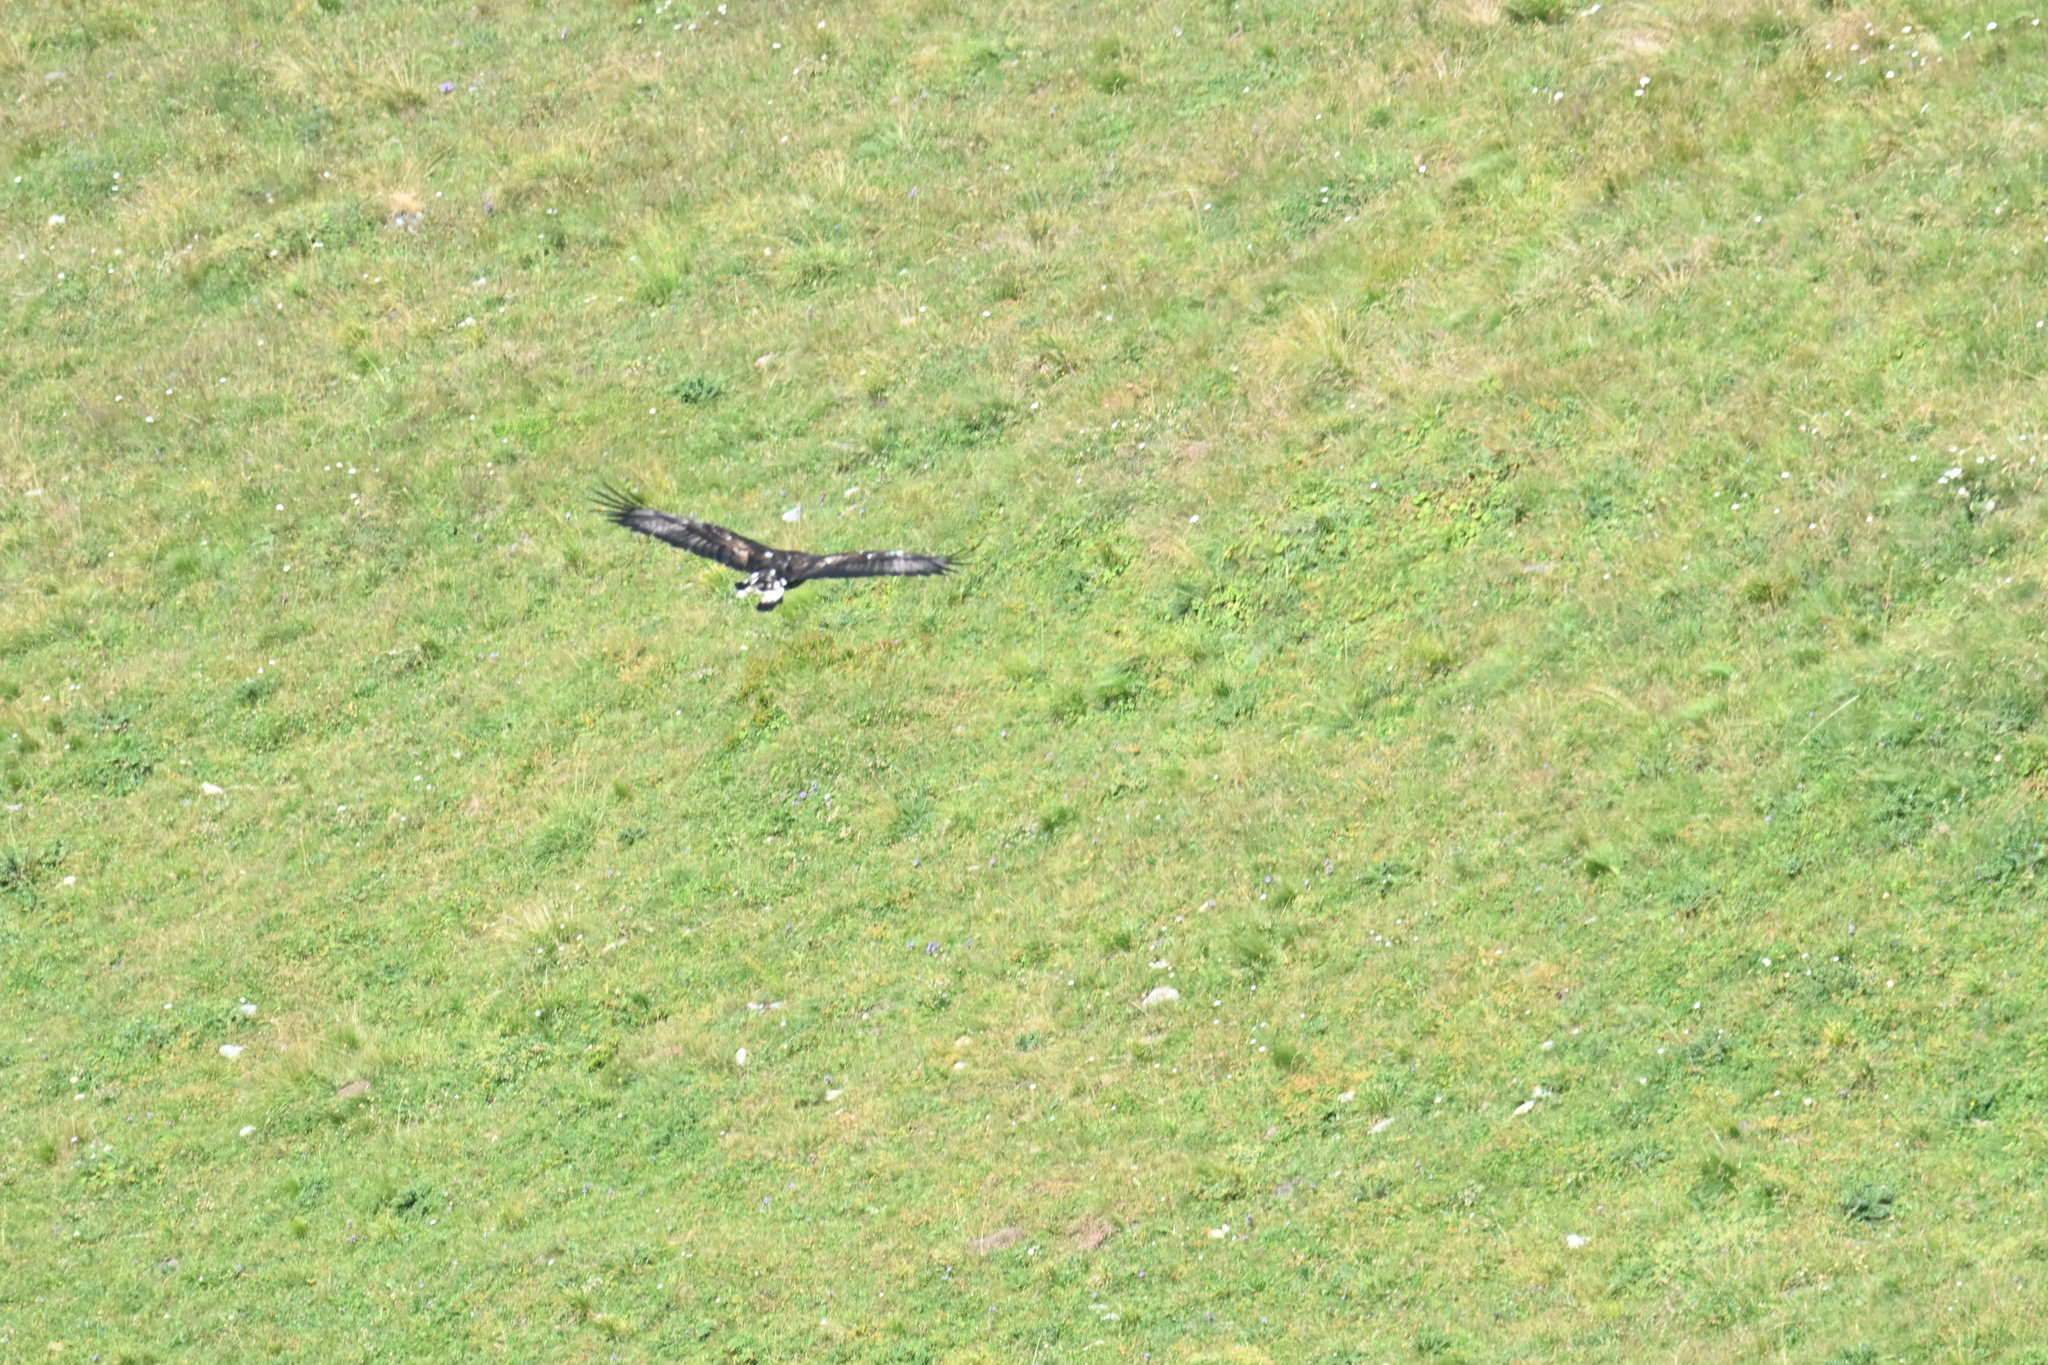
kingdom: Animalia
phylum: Chordata
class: Aves
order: Accipitriformes
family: Accipitridae
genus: Aquila
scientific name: Aquila chrysaetos
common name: Golden eagle
